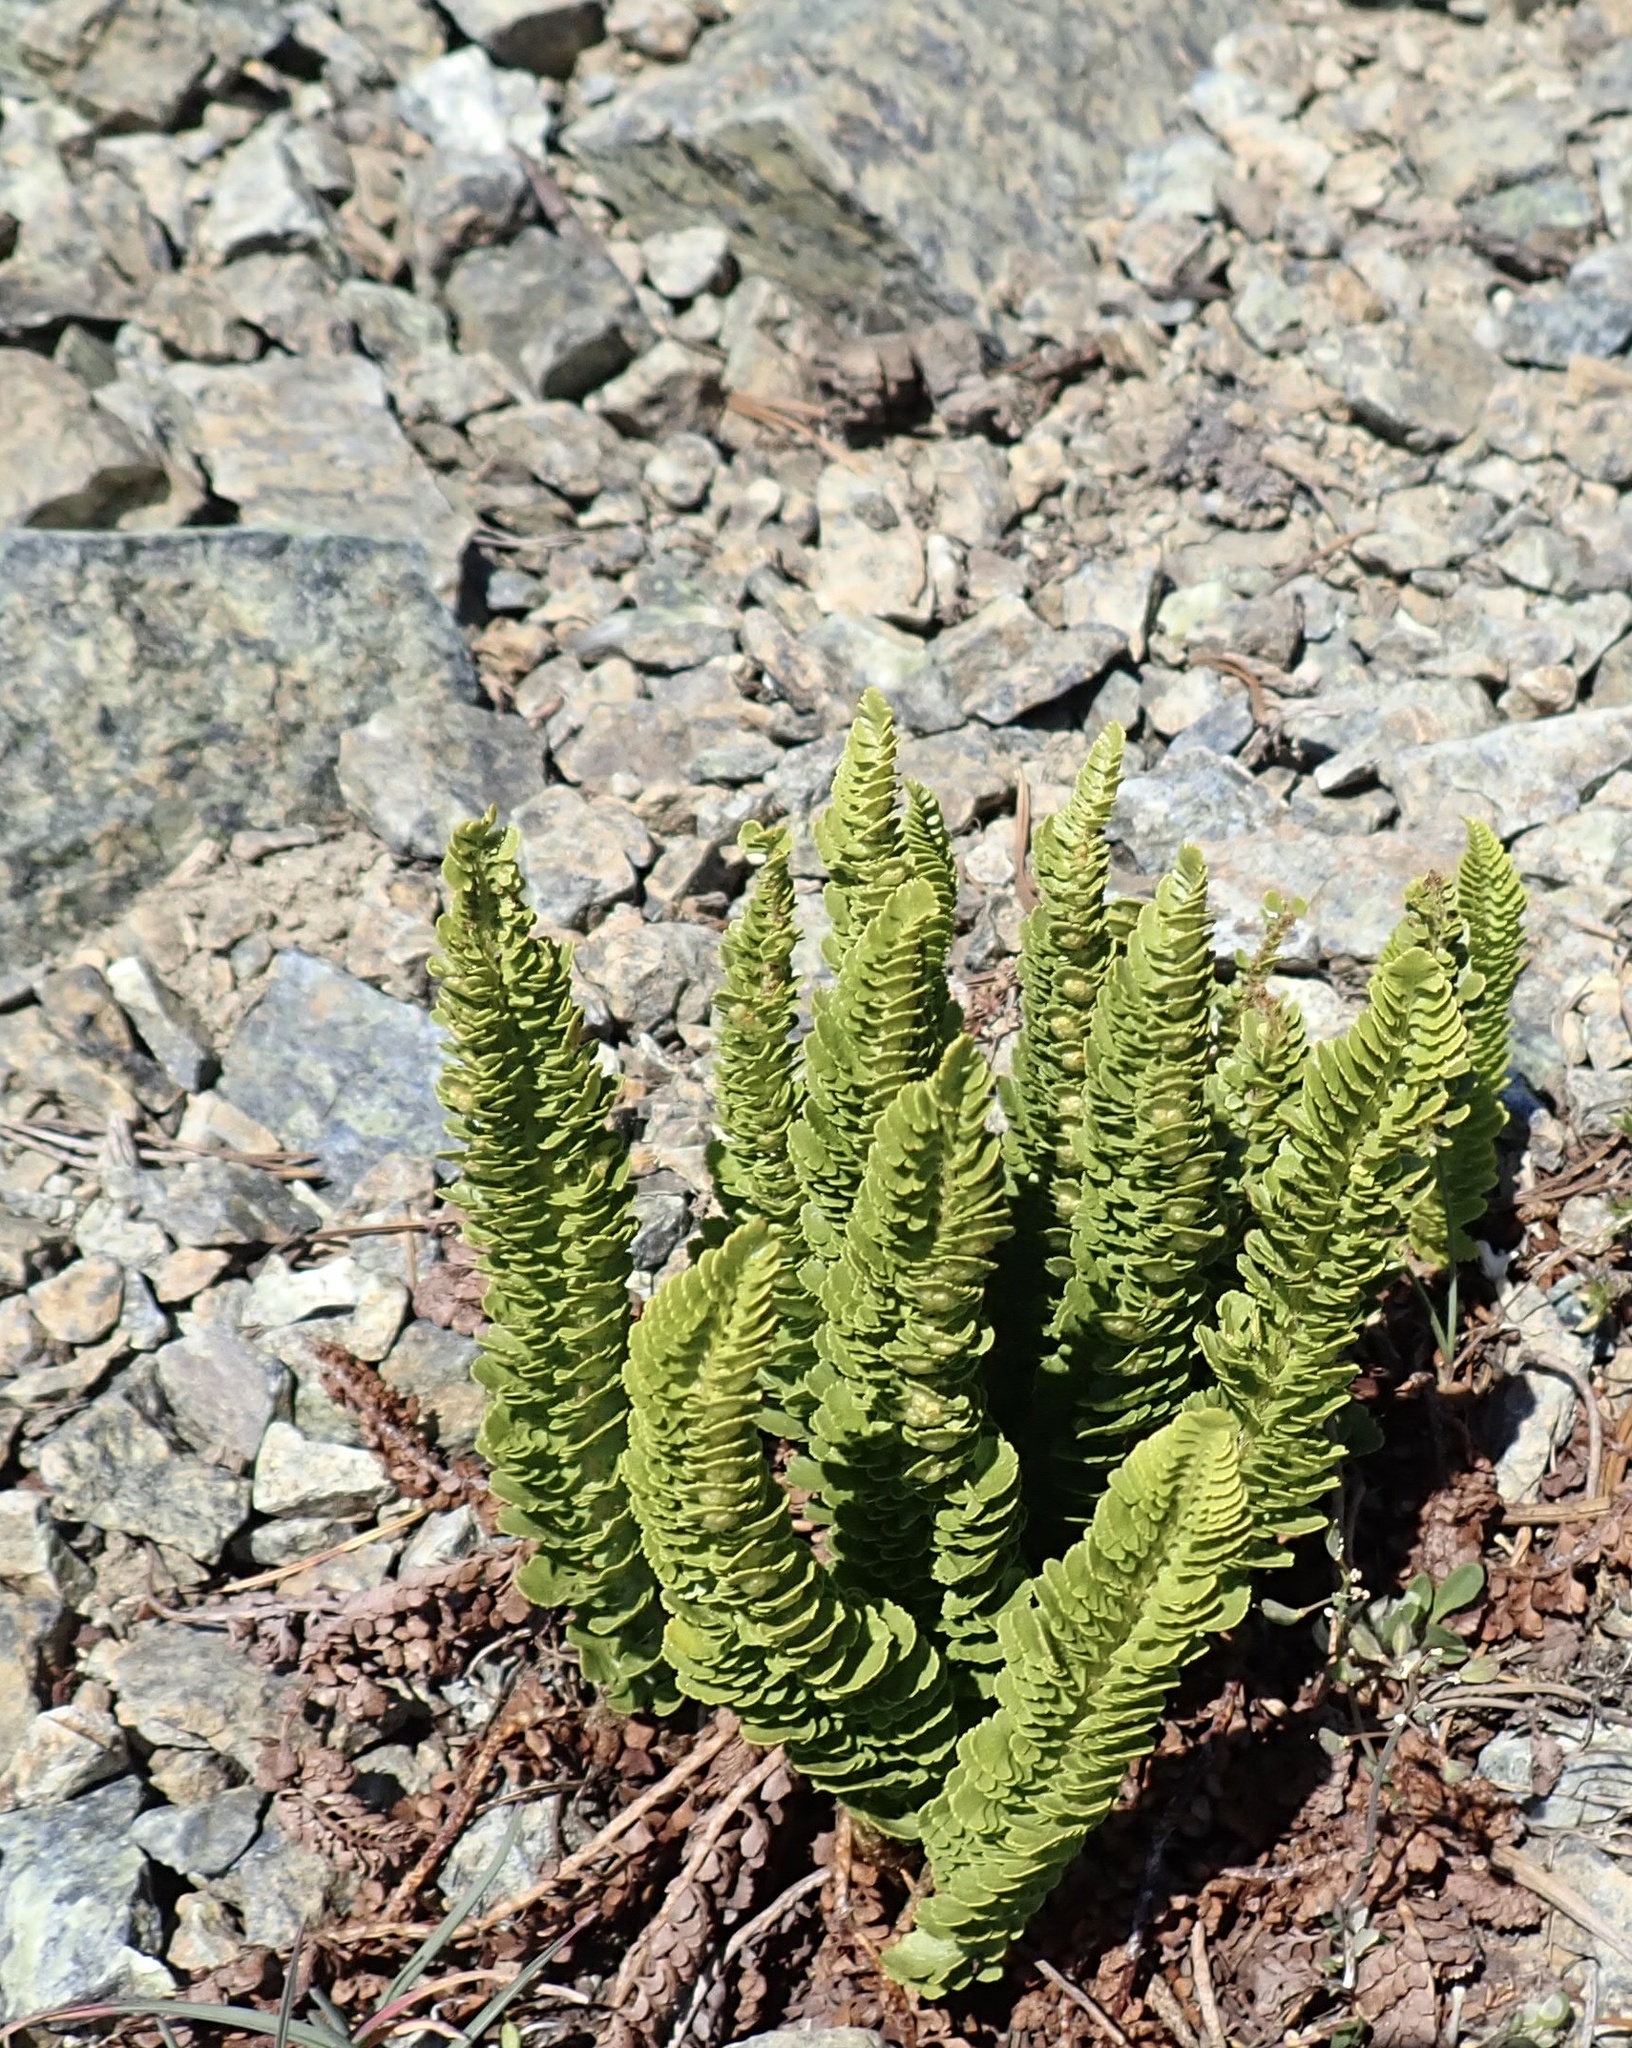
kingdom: Plantae
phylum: Tracheophyta
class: Polypodiopsida
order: Polypodiales
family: Dryopteridaceae
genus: Polystichum
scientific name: Polystichum lemmonii
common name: Lemmon's holly fern
